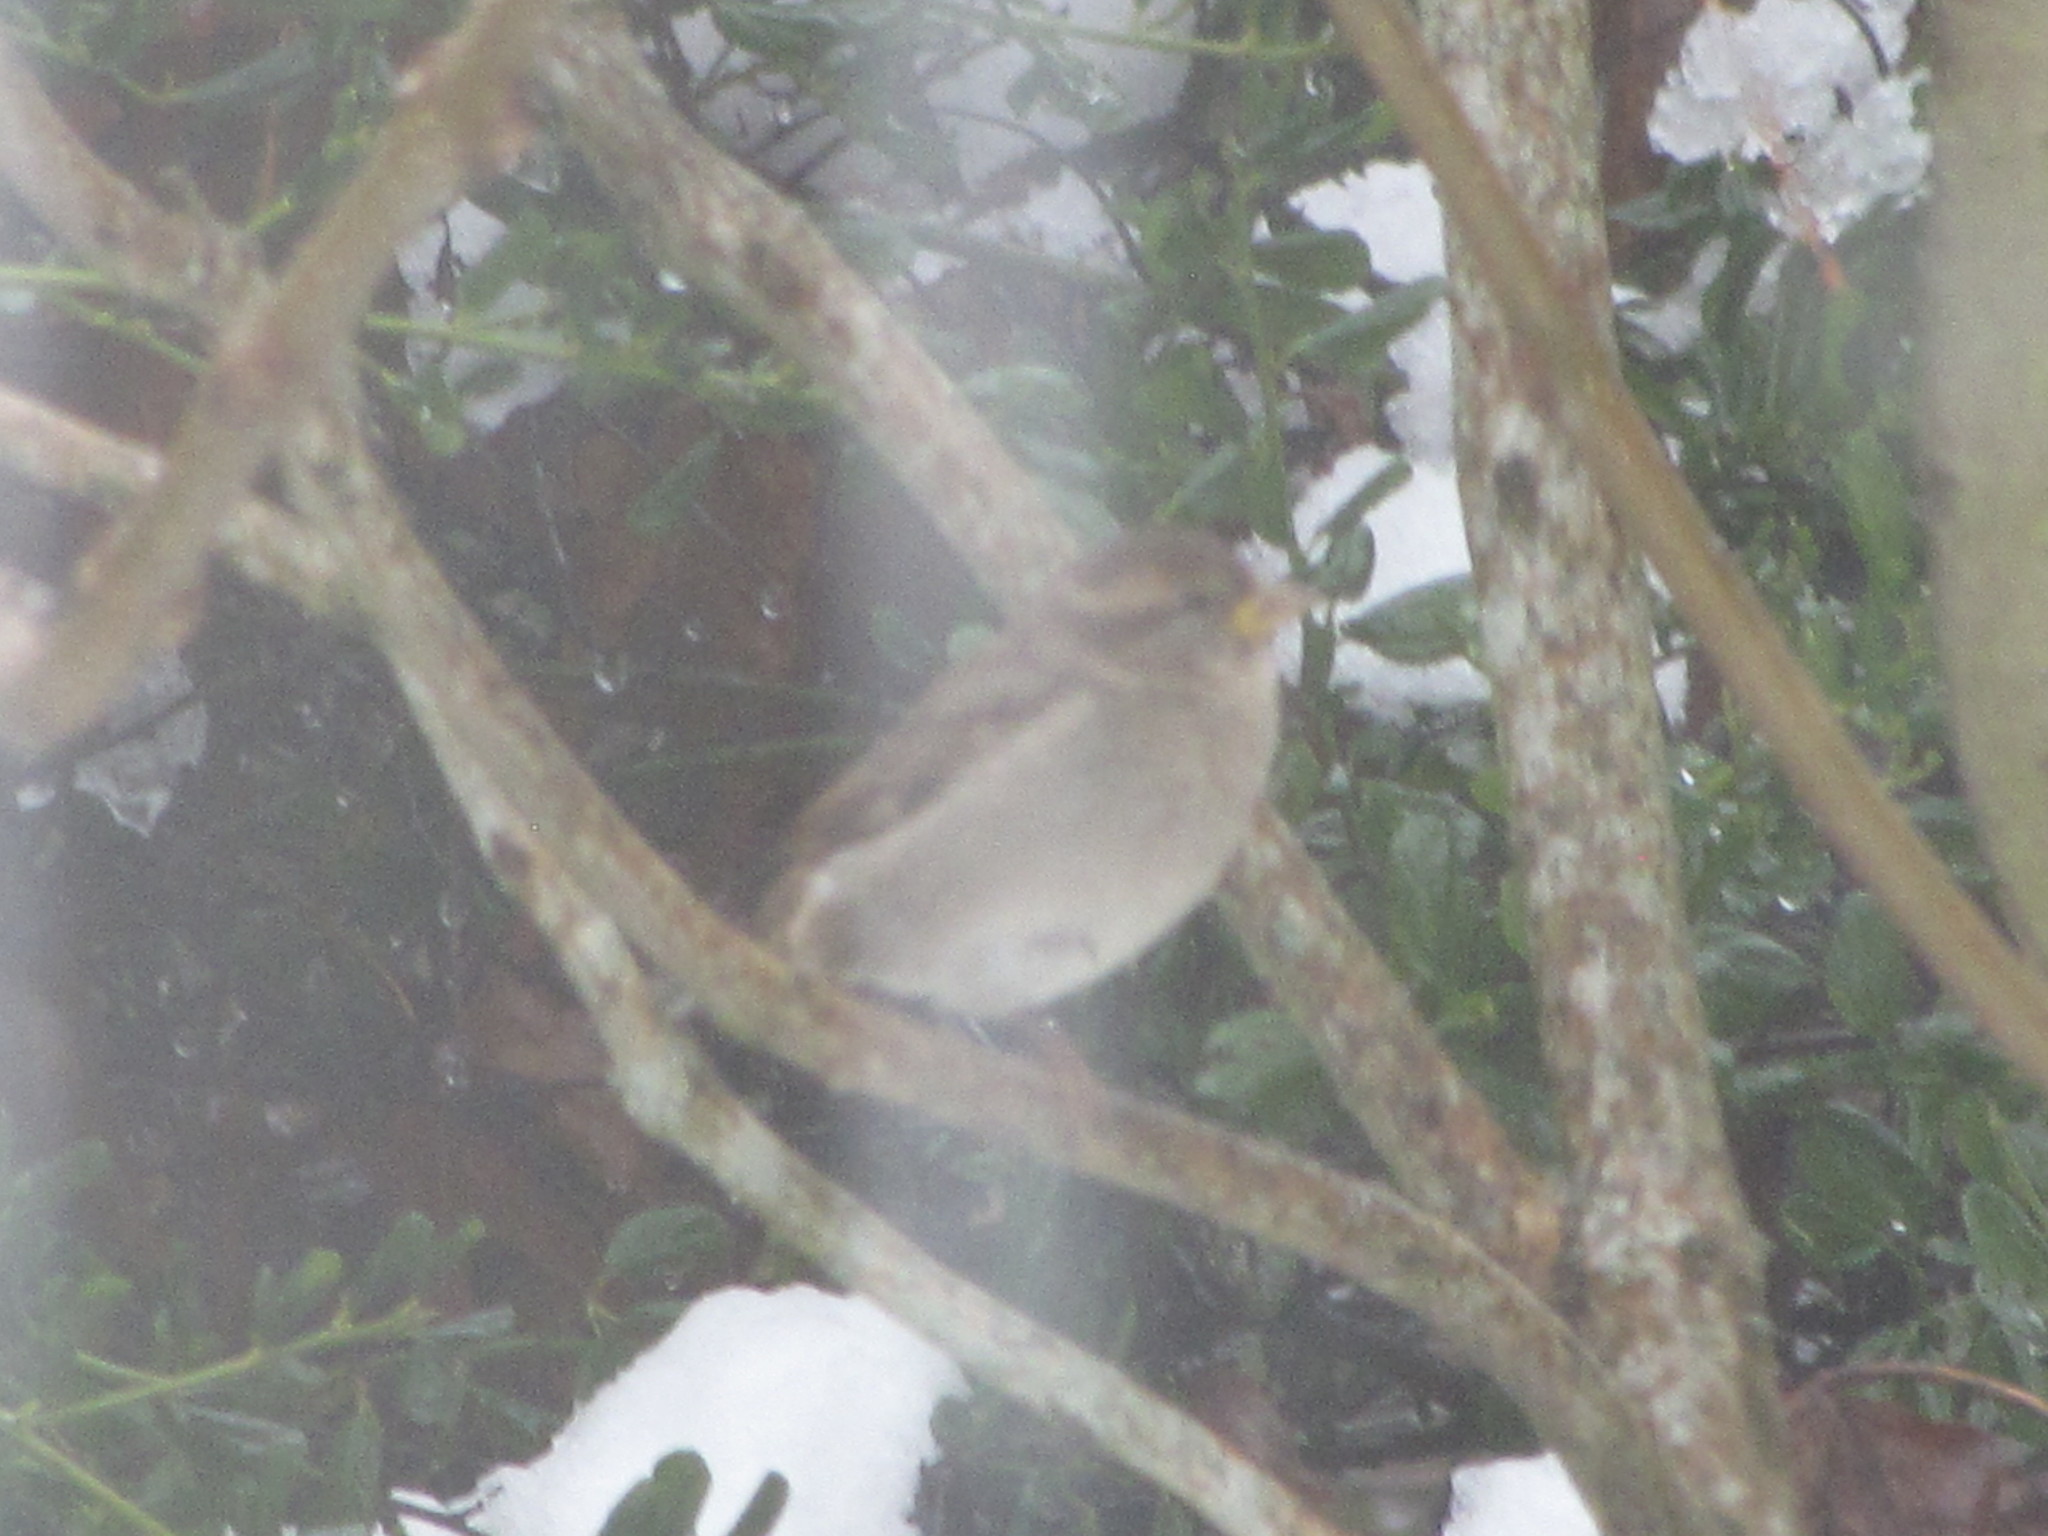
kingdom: Animalia
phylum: Chordata
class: Aves
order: Passeriformes
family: Passeridae
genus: Passer
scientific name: Passer domesticus
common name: House sparrow
